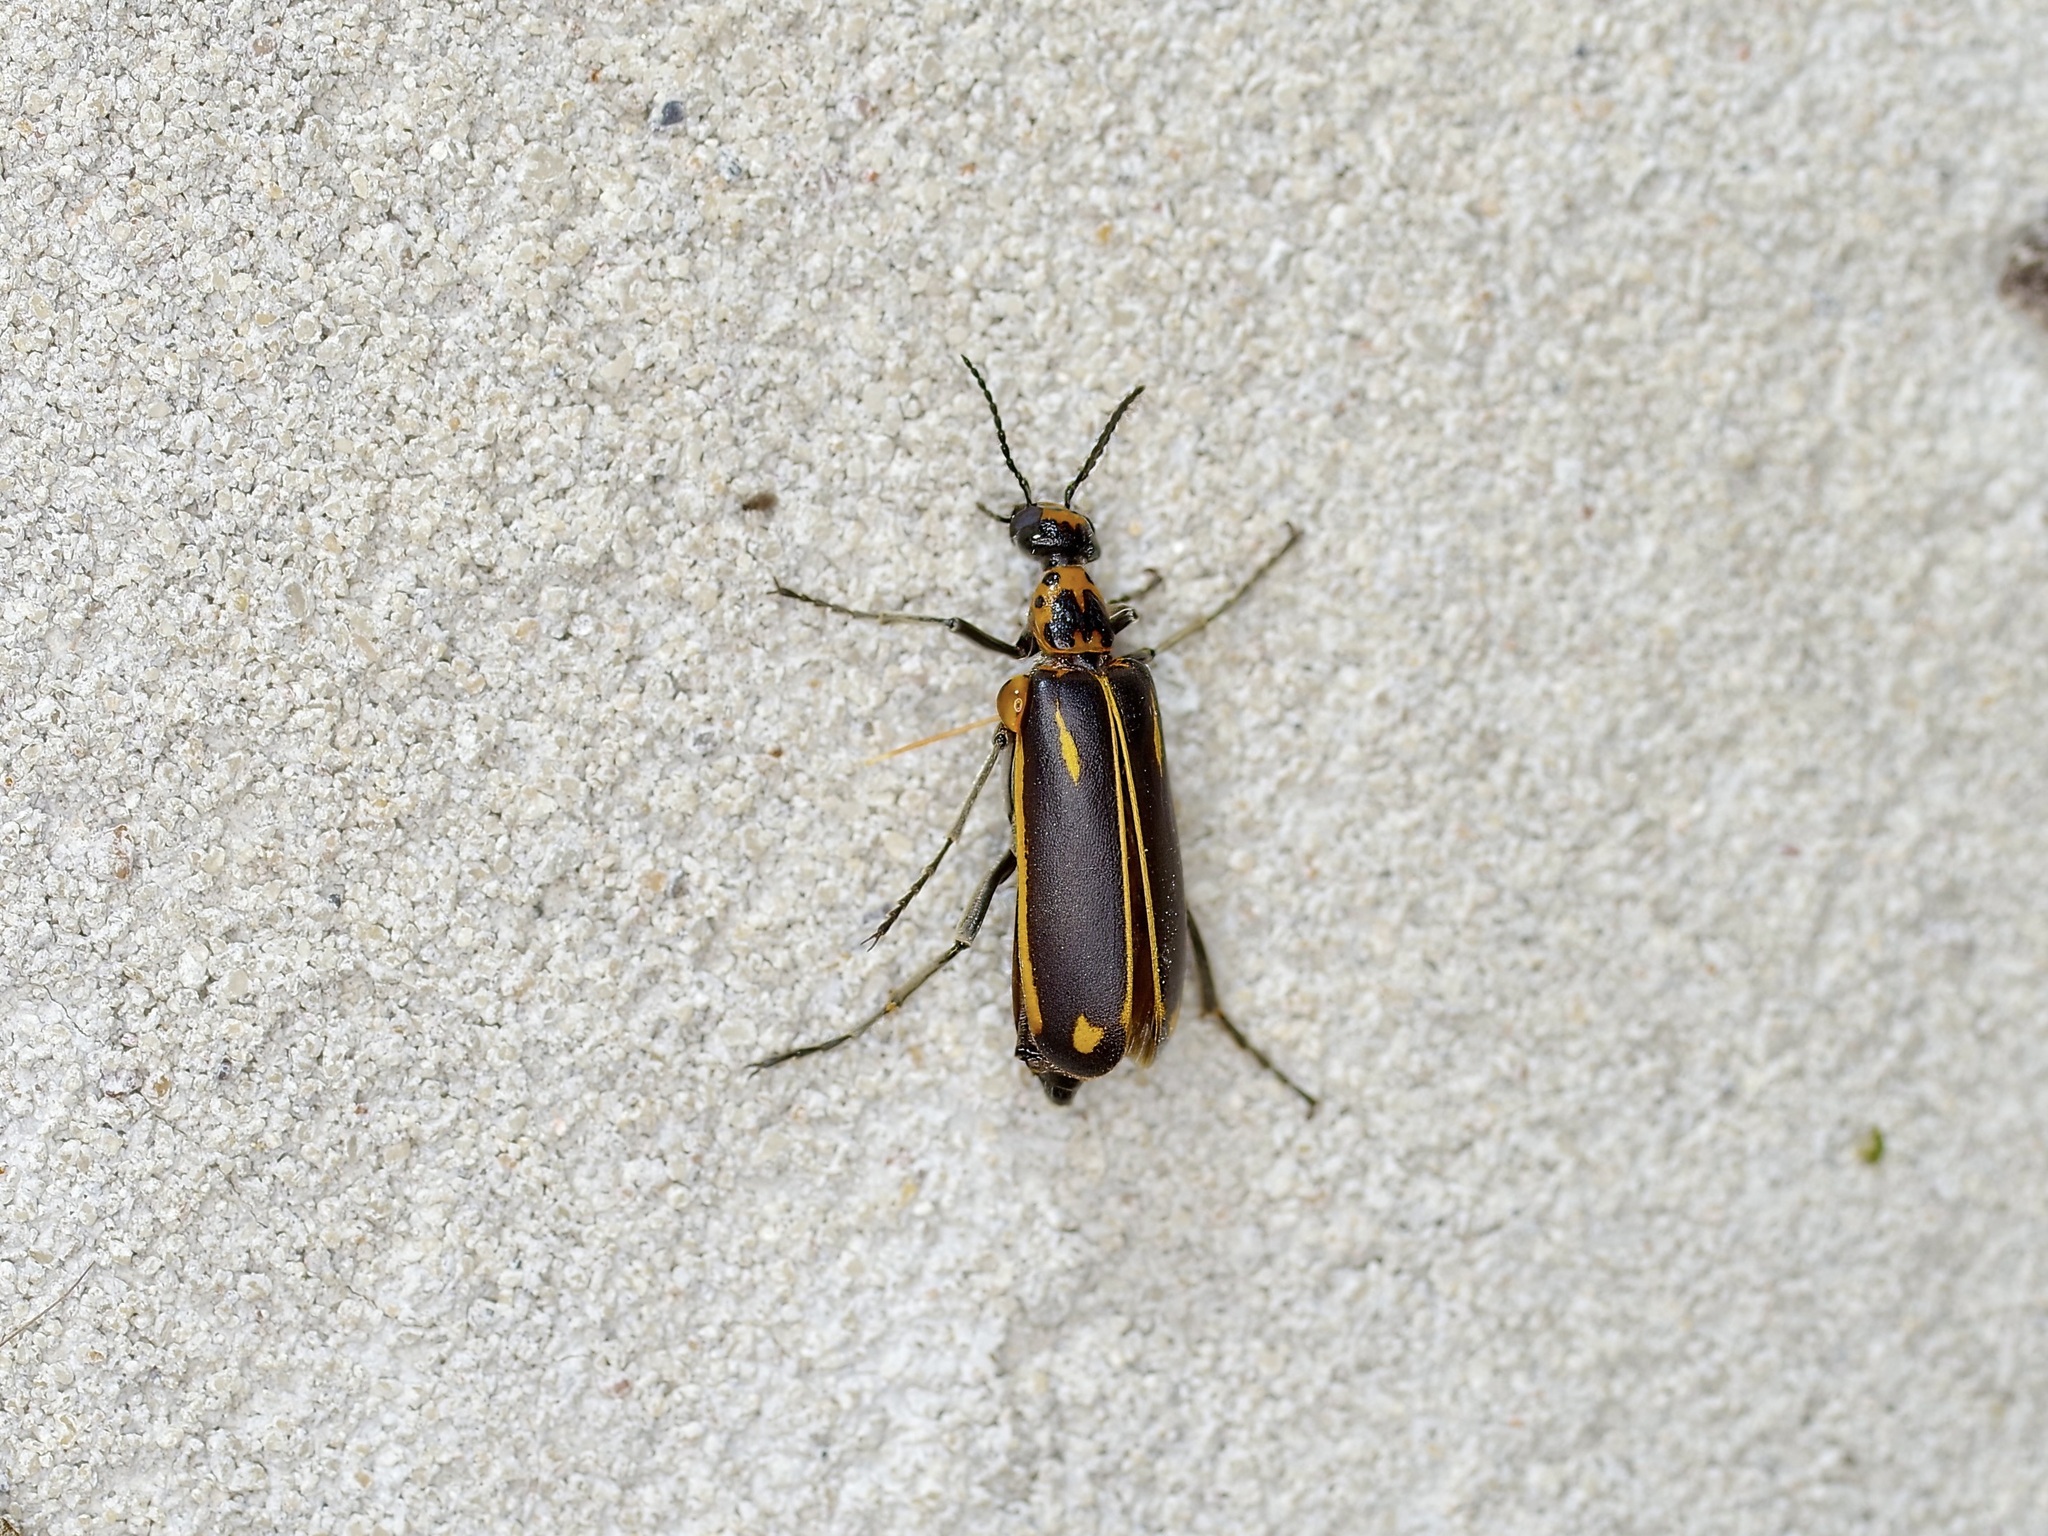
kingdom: Animalia
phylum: Arthropoda
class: Insecta
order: Coleoptera
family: Meloidae
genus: Pyrota
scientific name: Pyrota insulata
